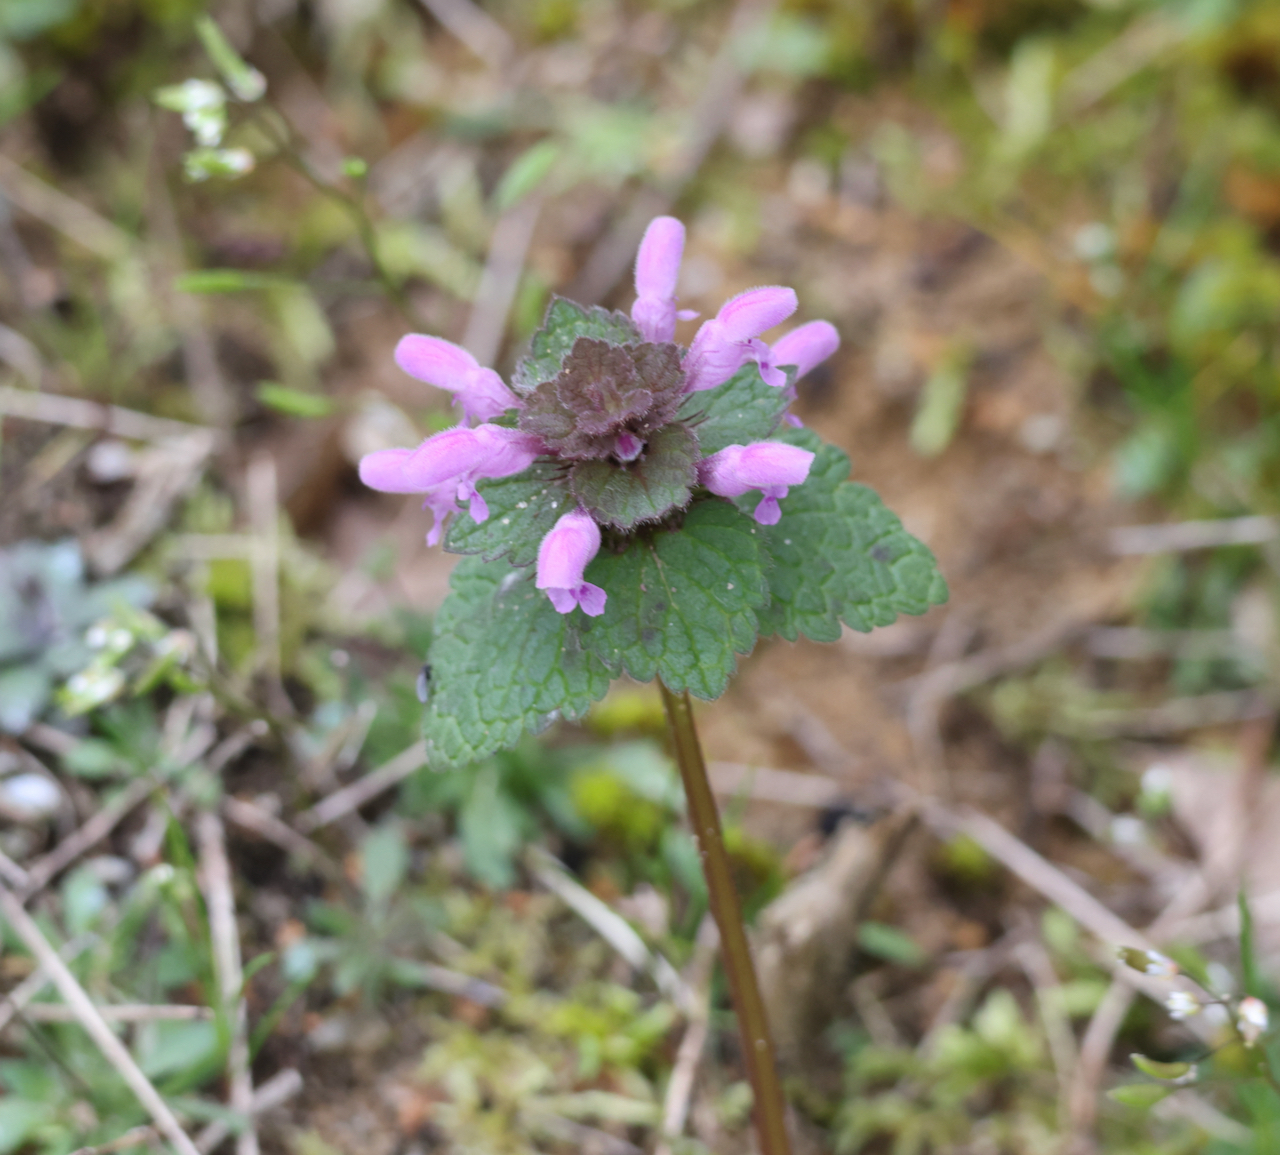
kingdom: Plantae
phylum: Tracheophyta
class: Magnoliopsida
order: Lamiales
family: Lamiaceae
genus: Lamium
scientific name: Lamium purpureum
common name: Red dead-nettle
